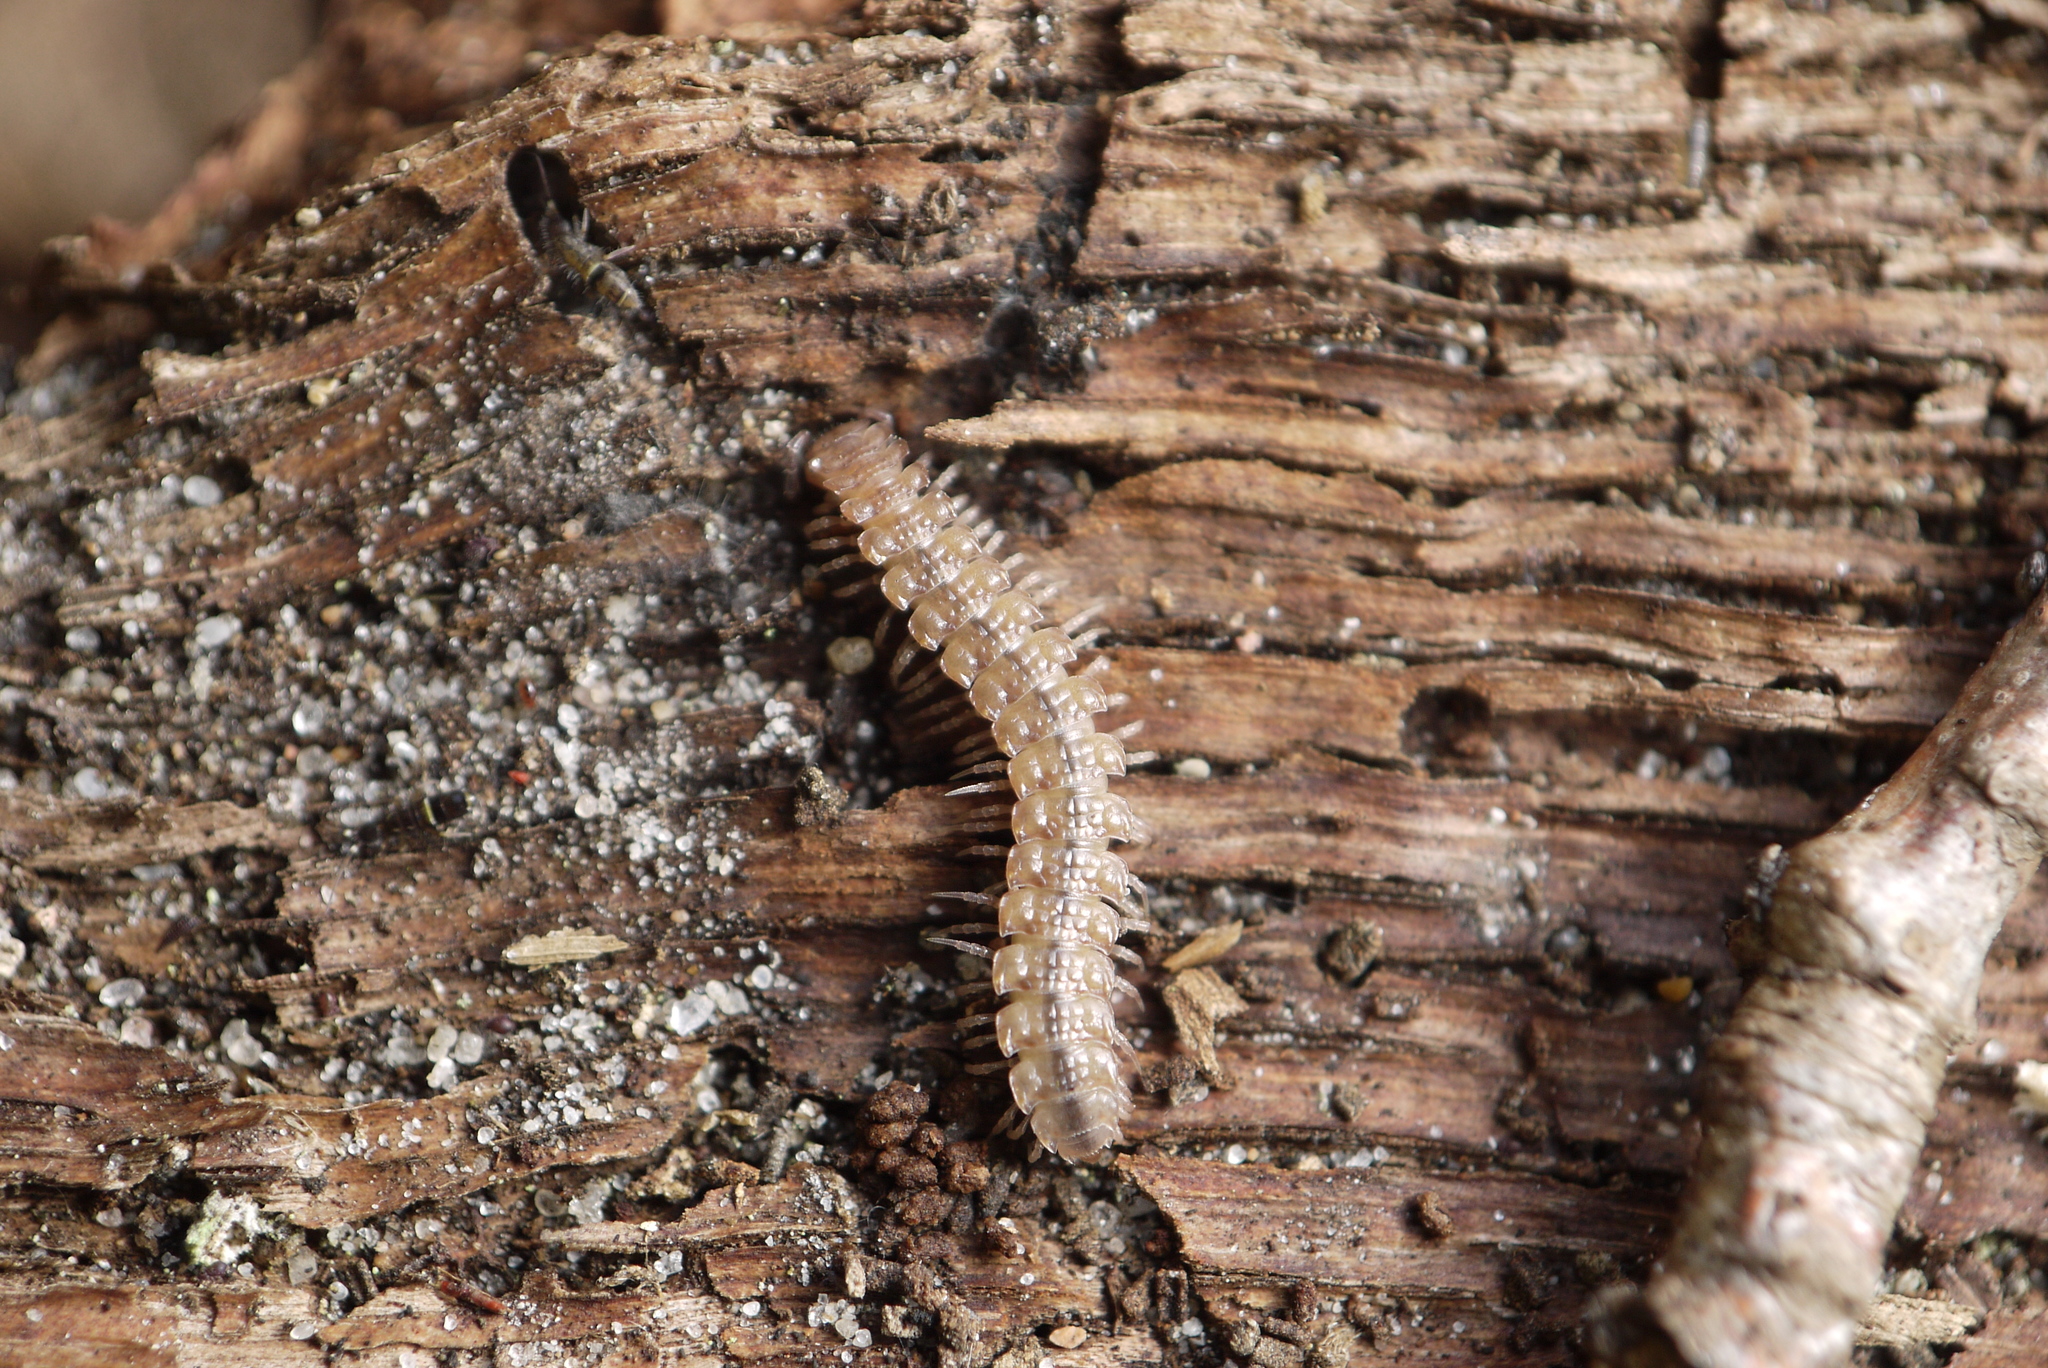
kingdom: Animalia
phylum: Arthropoda
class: Diplopoda
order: Polydesmida
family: Polydesmidae
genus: Polydesmus
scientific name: Polydesmus angustus
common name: Flat millipede
